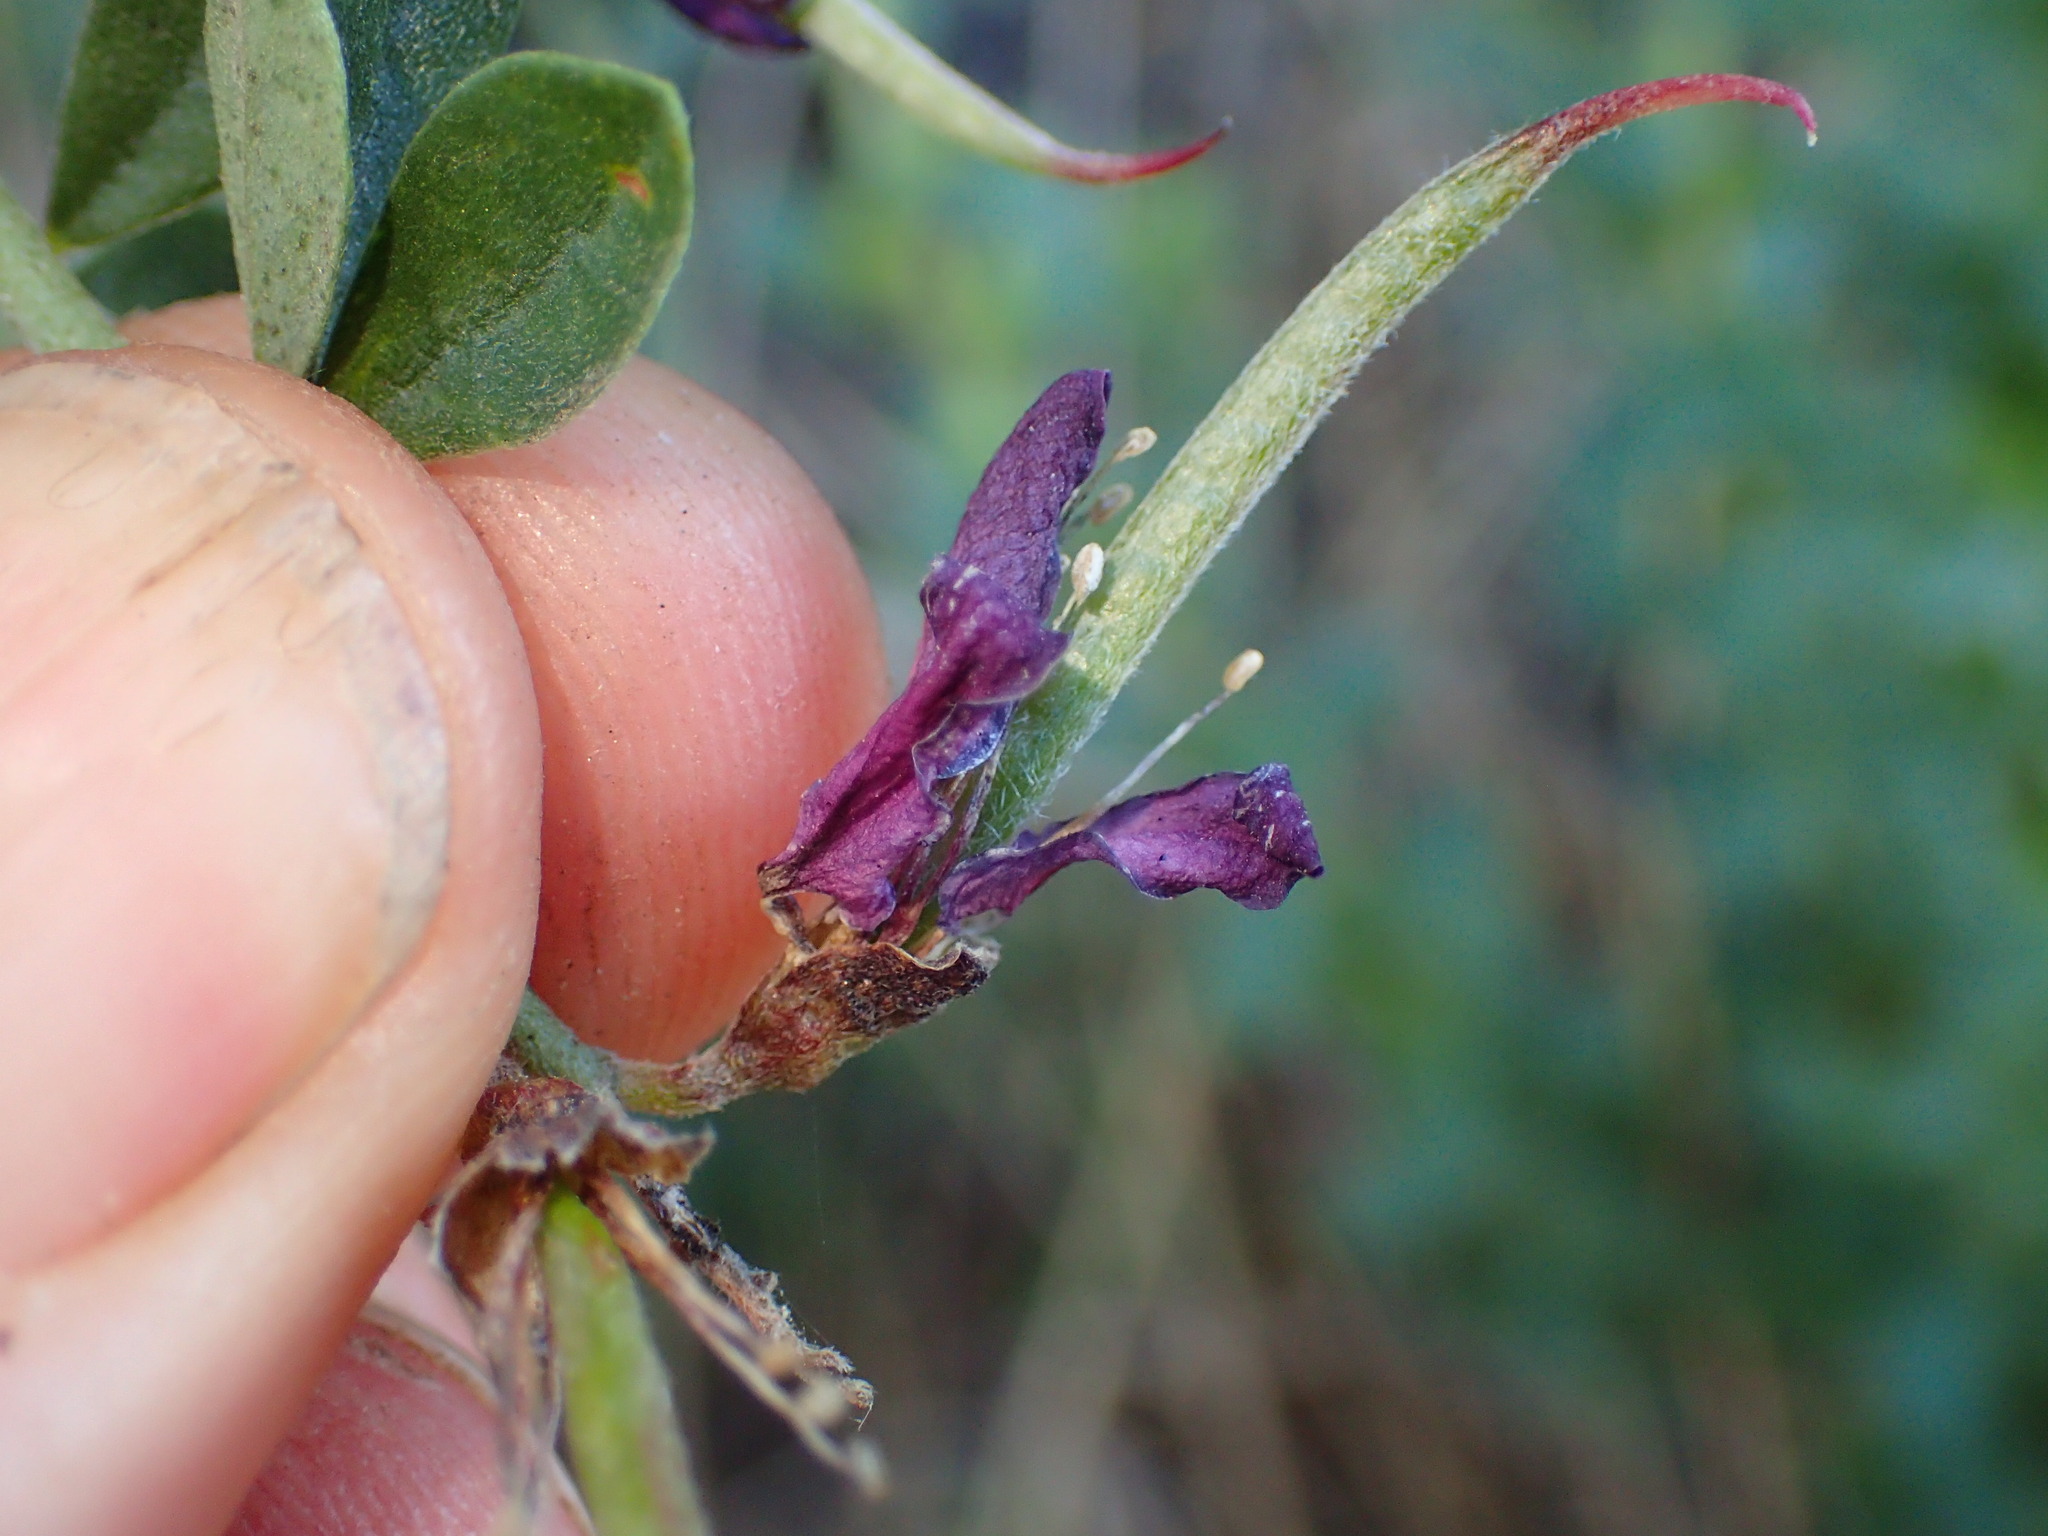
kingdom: Plantae
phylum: Tracheophyta
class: Magnoliopsida
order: Fabales
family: Fabaceae
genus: Pickeringia
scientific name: Pickeringia montana
